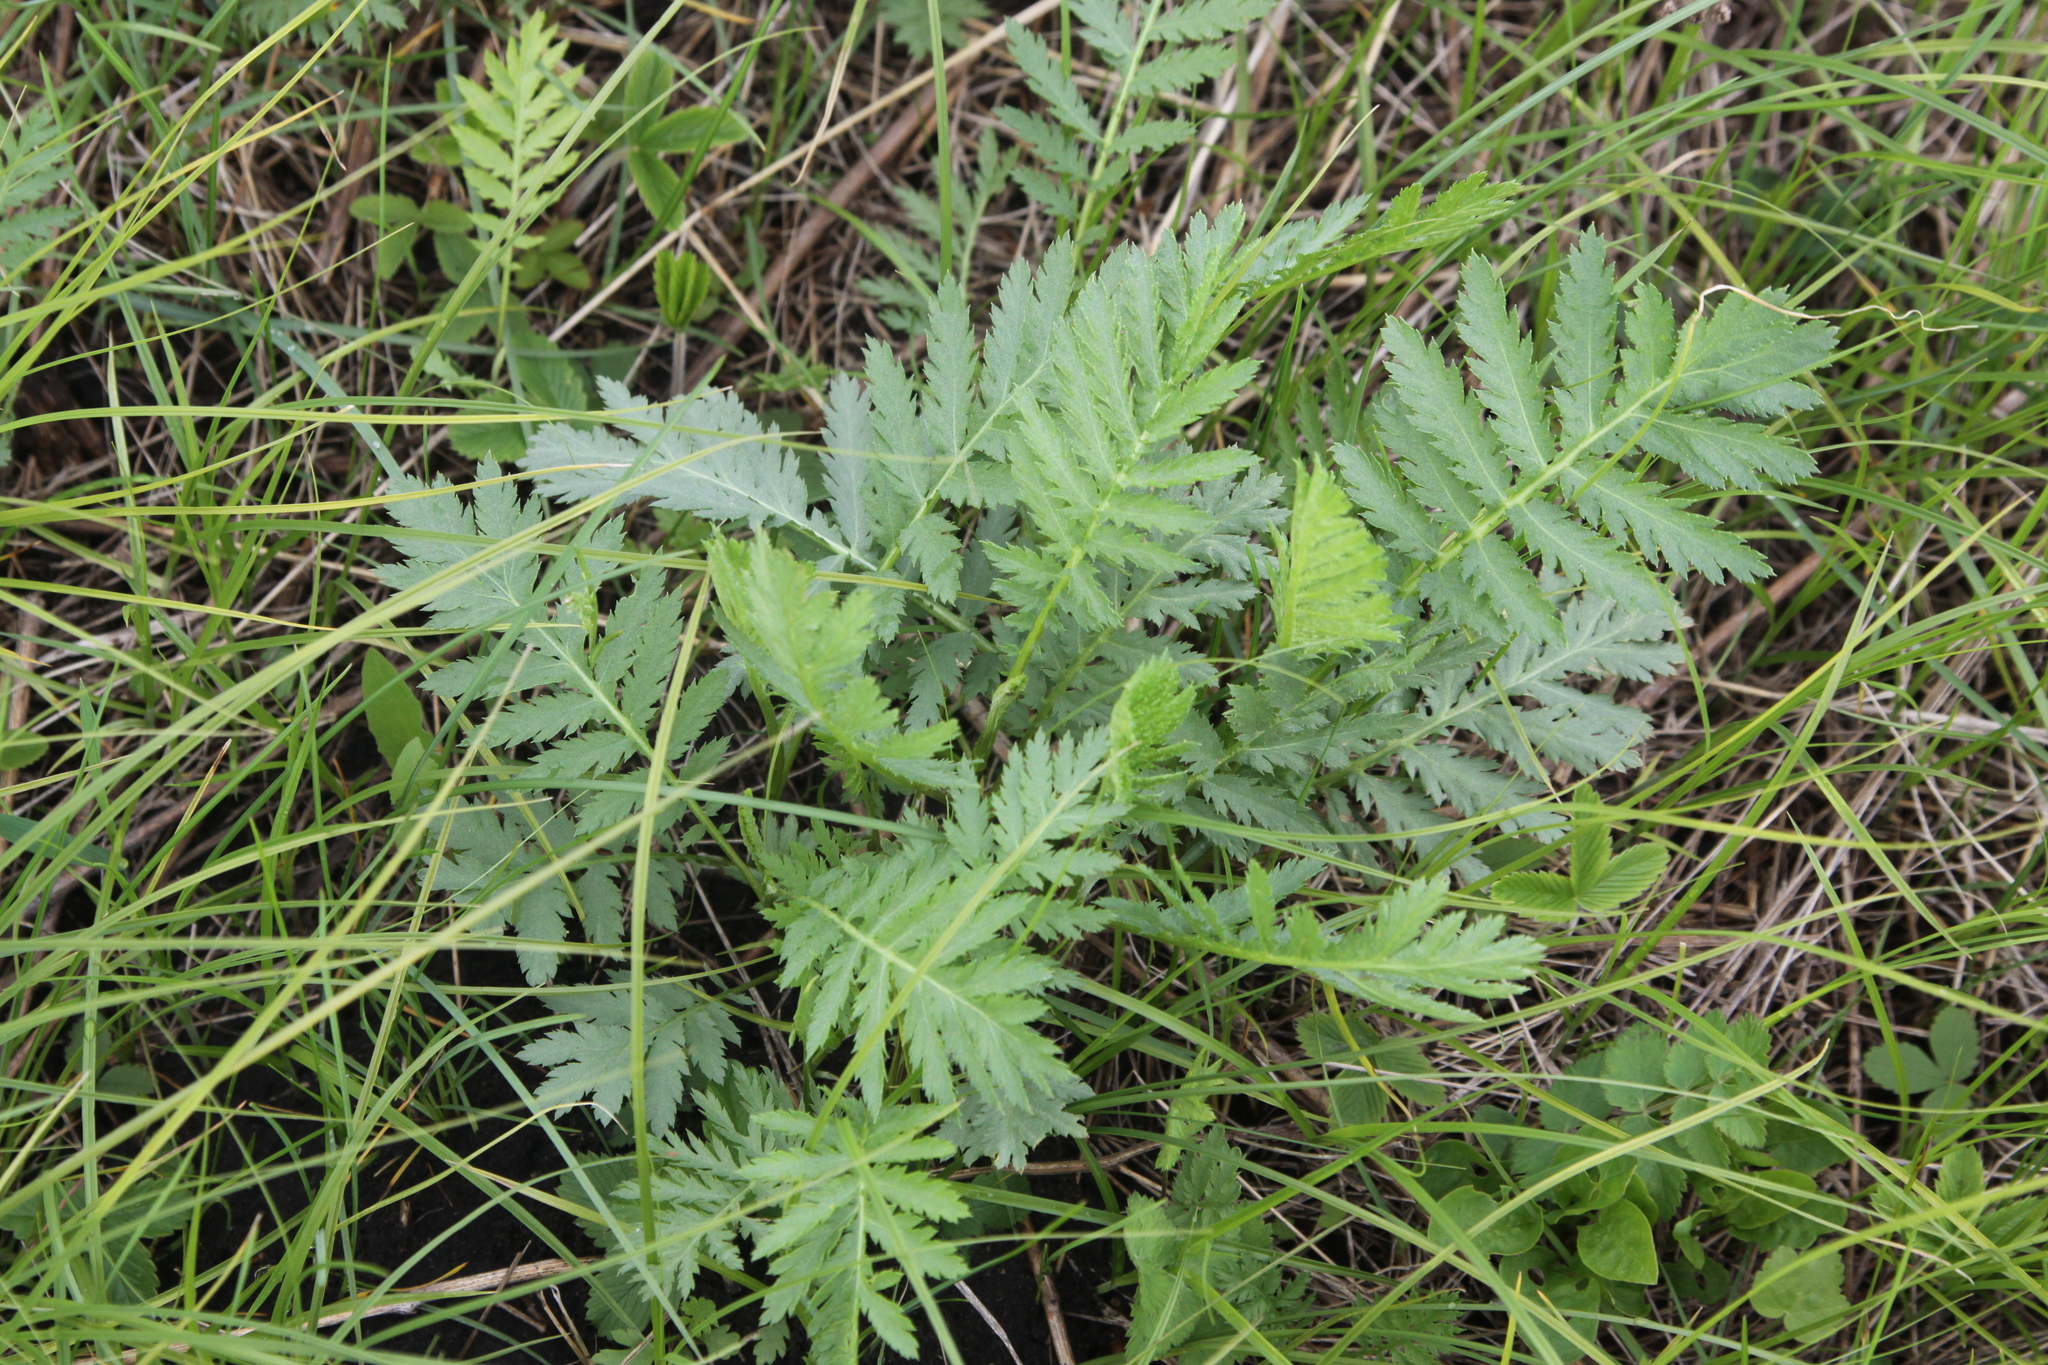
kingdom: Plantae
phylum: Tracheophyta
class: Magnoliopsida
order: Asterales
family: Asteraceae
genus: Tanacetum
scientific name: Tanacetum vulgare
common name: Common tansy
